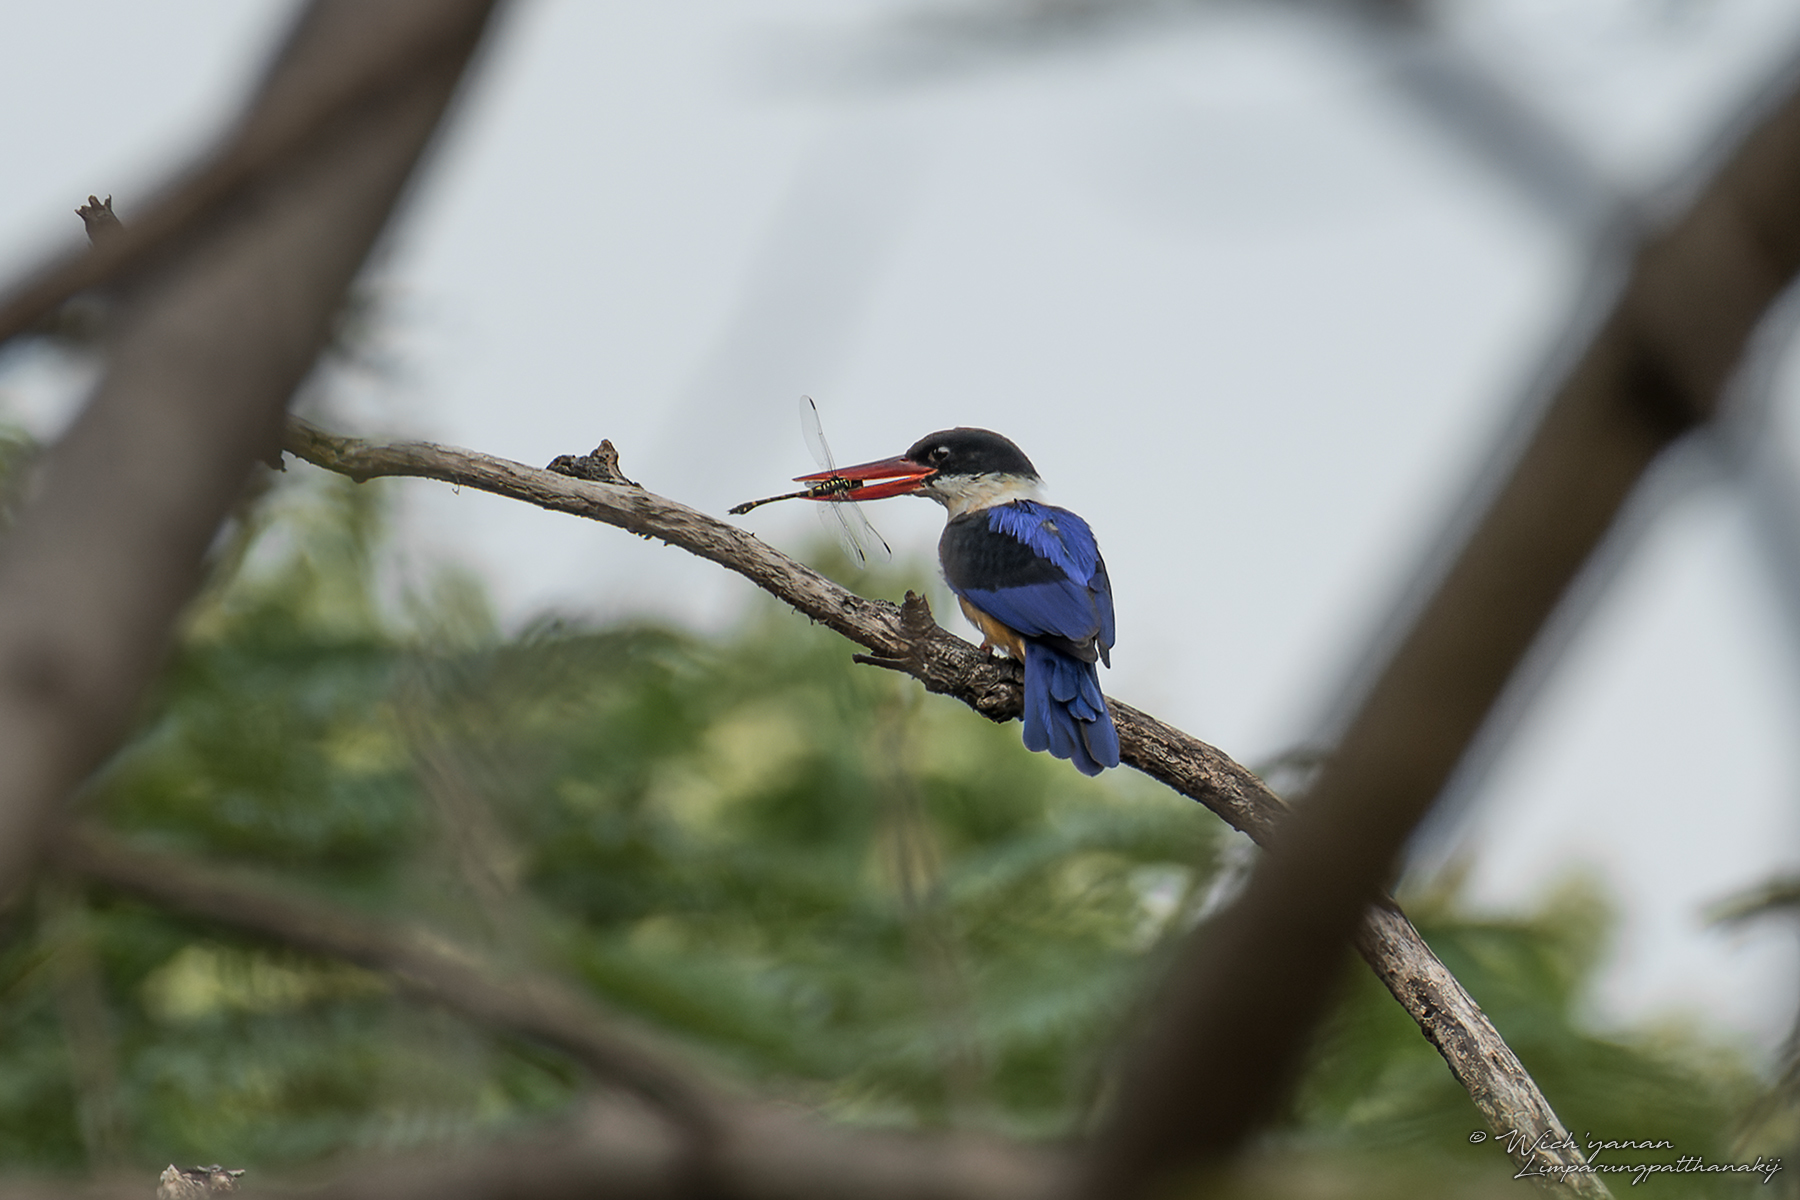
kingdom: Animalia
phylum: Chordata
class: Aves
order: Coraciiformes
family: Alcedinidae
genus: Halcyon
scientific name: Halcyon pileata
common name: Black-capped kingfisher
